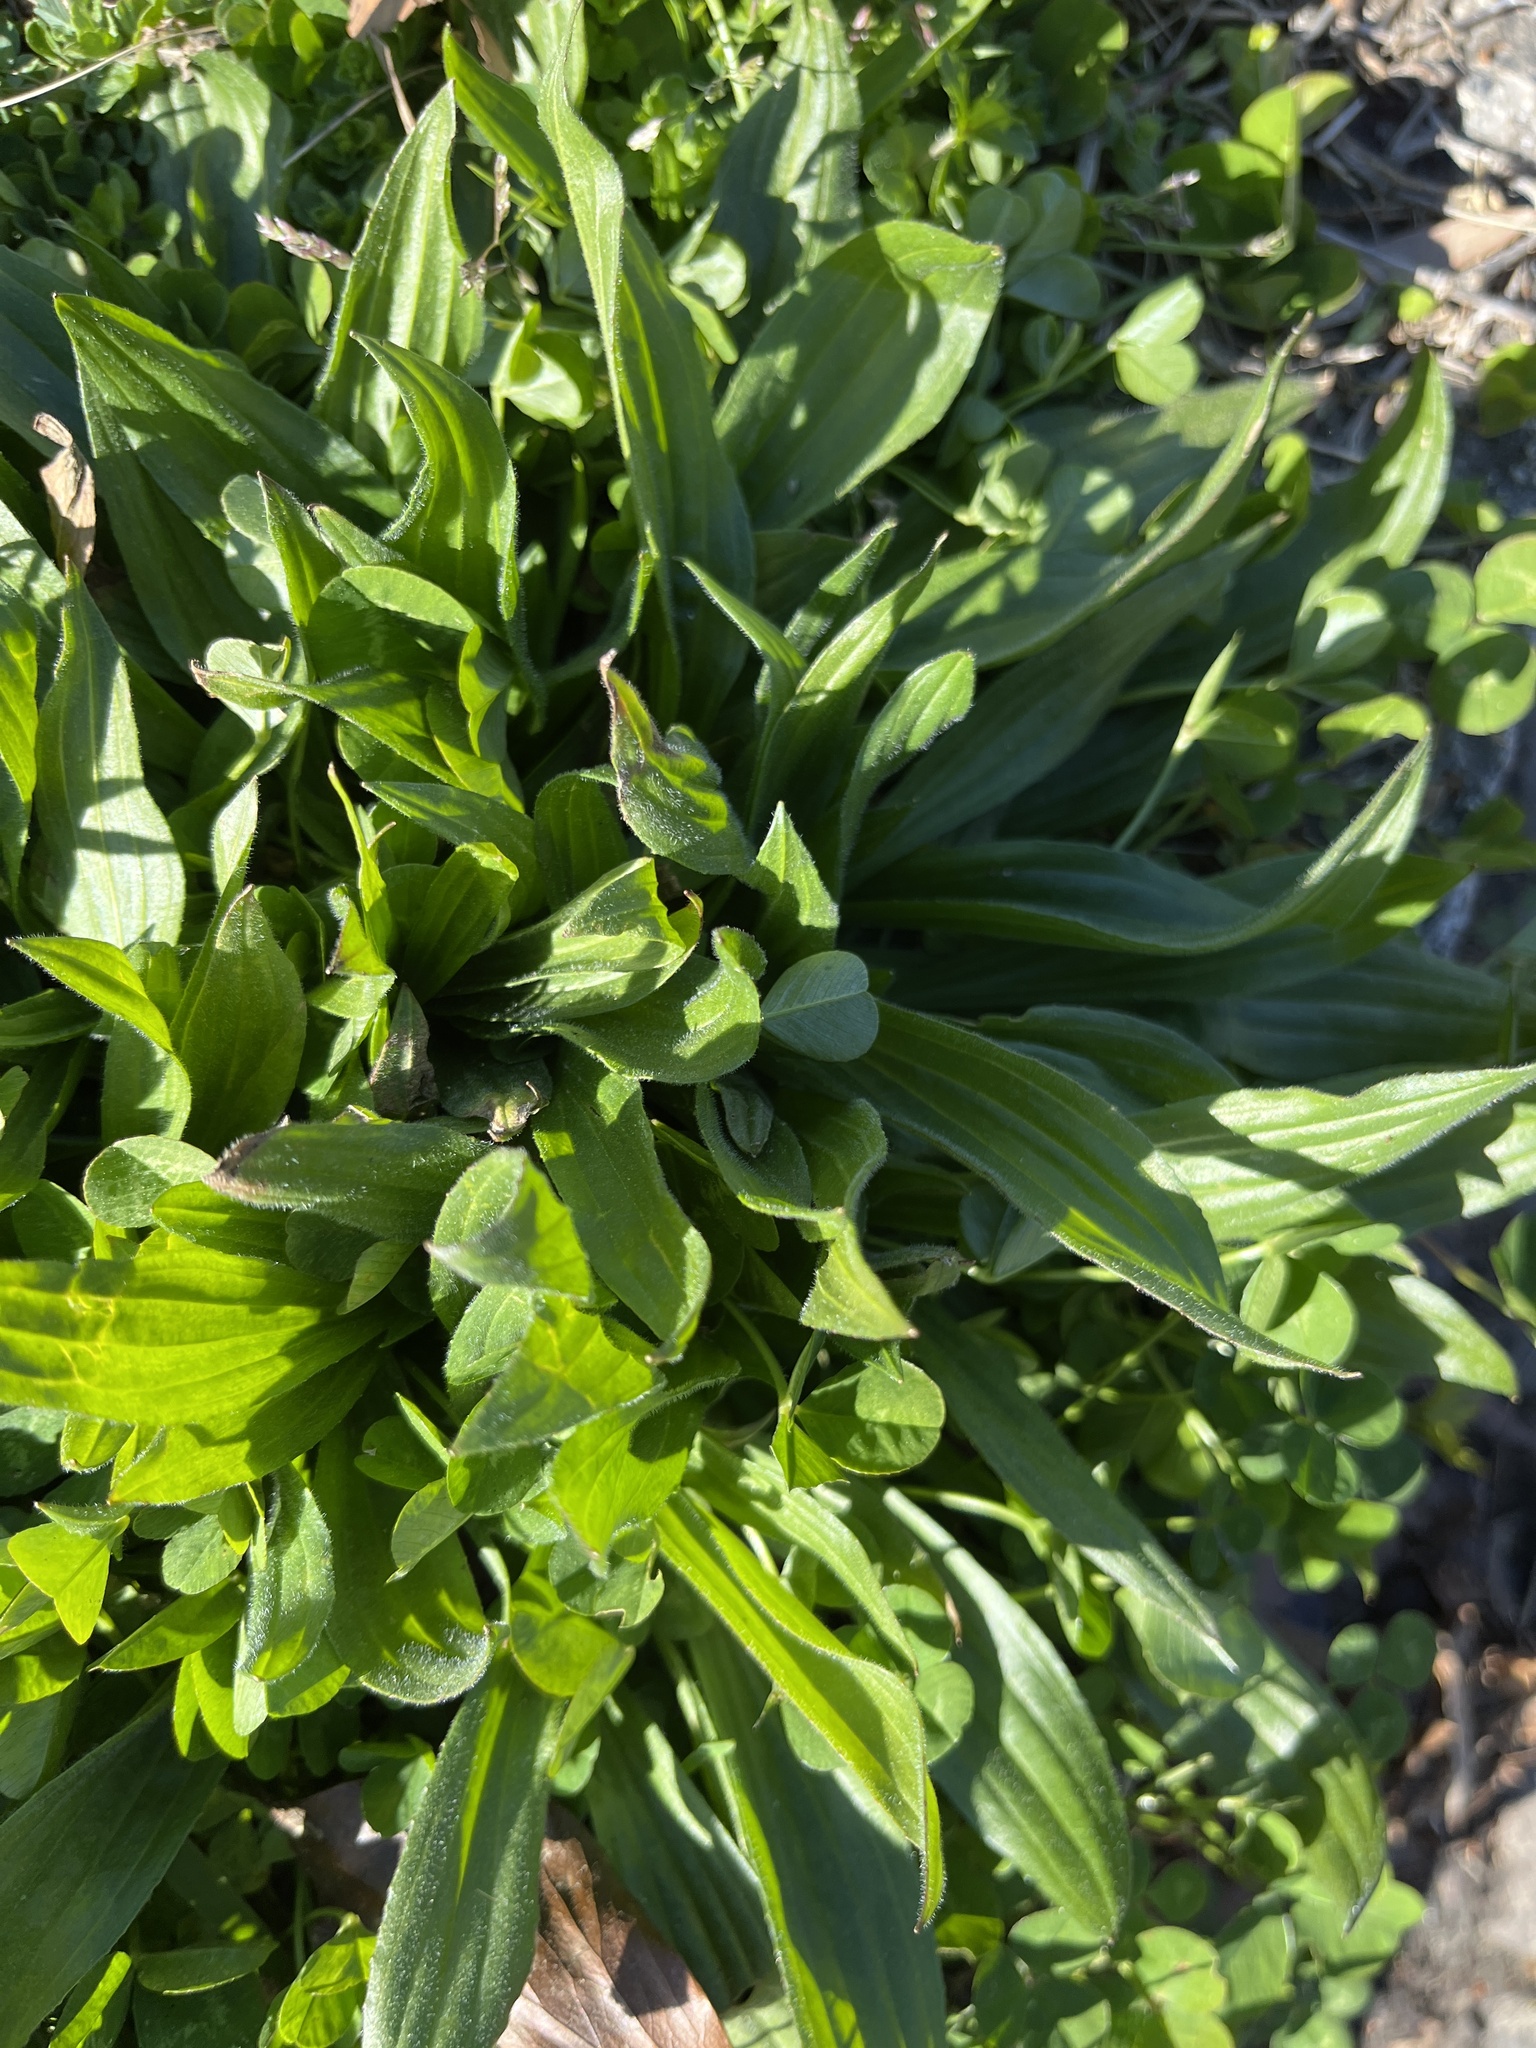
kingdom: Plantae
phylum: Tracheophyta
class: Magnoliopsida
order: Lamiales
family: Plantaginaceae
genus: Plantago
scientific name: Plantago lanceolata
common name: Ribwort plantain
